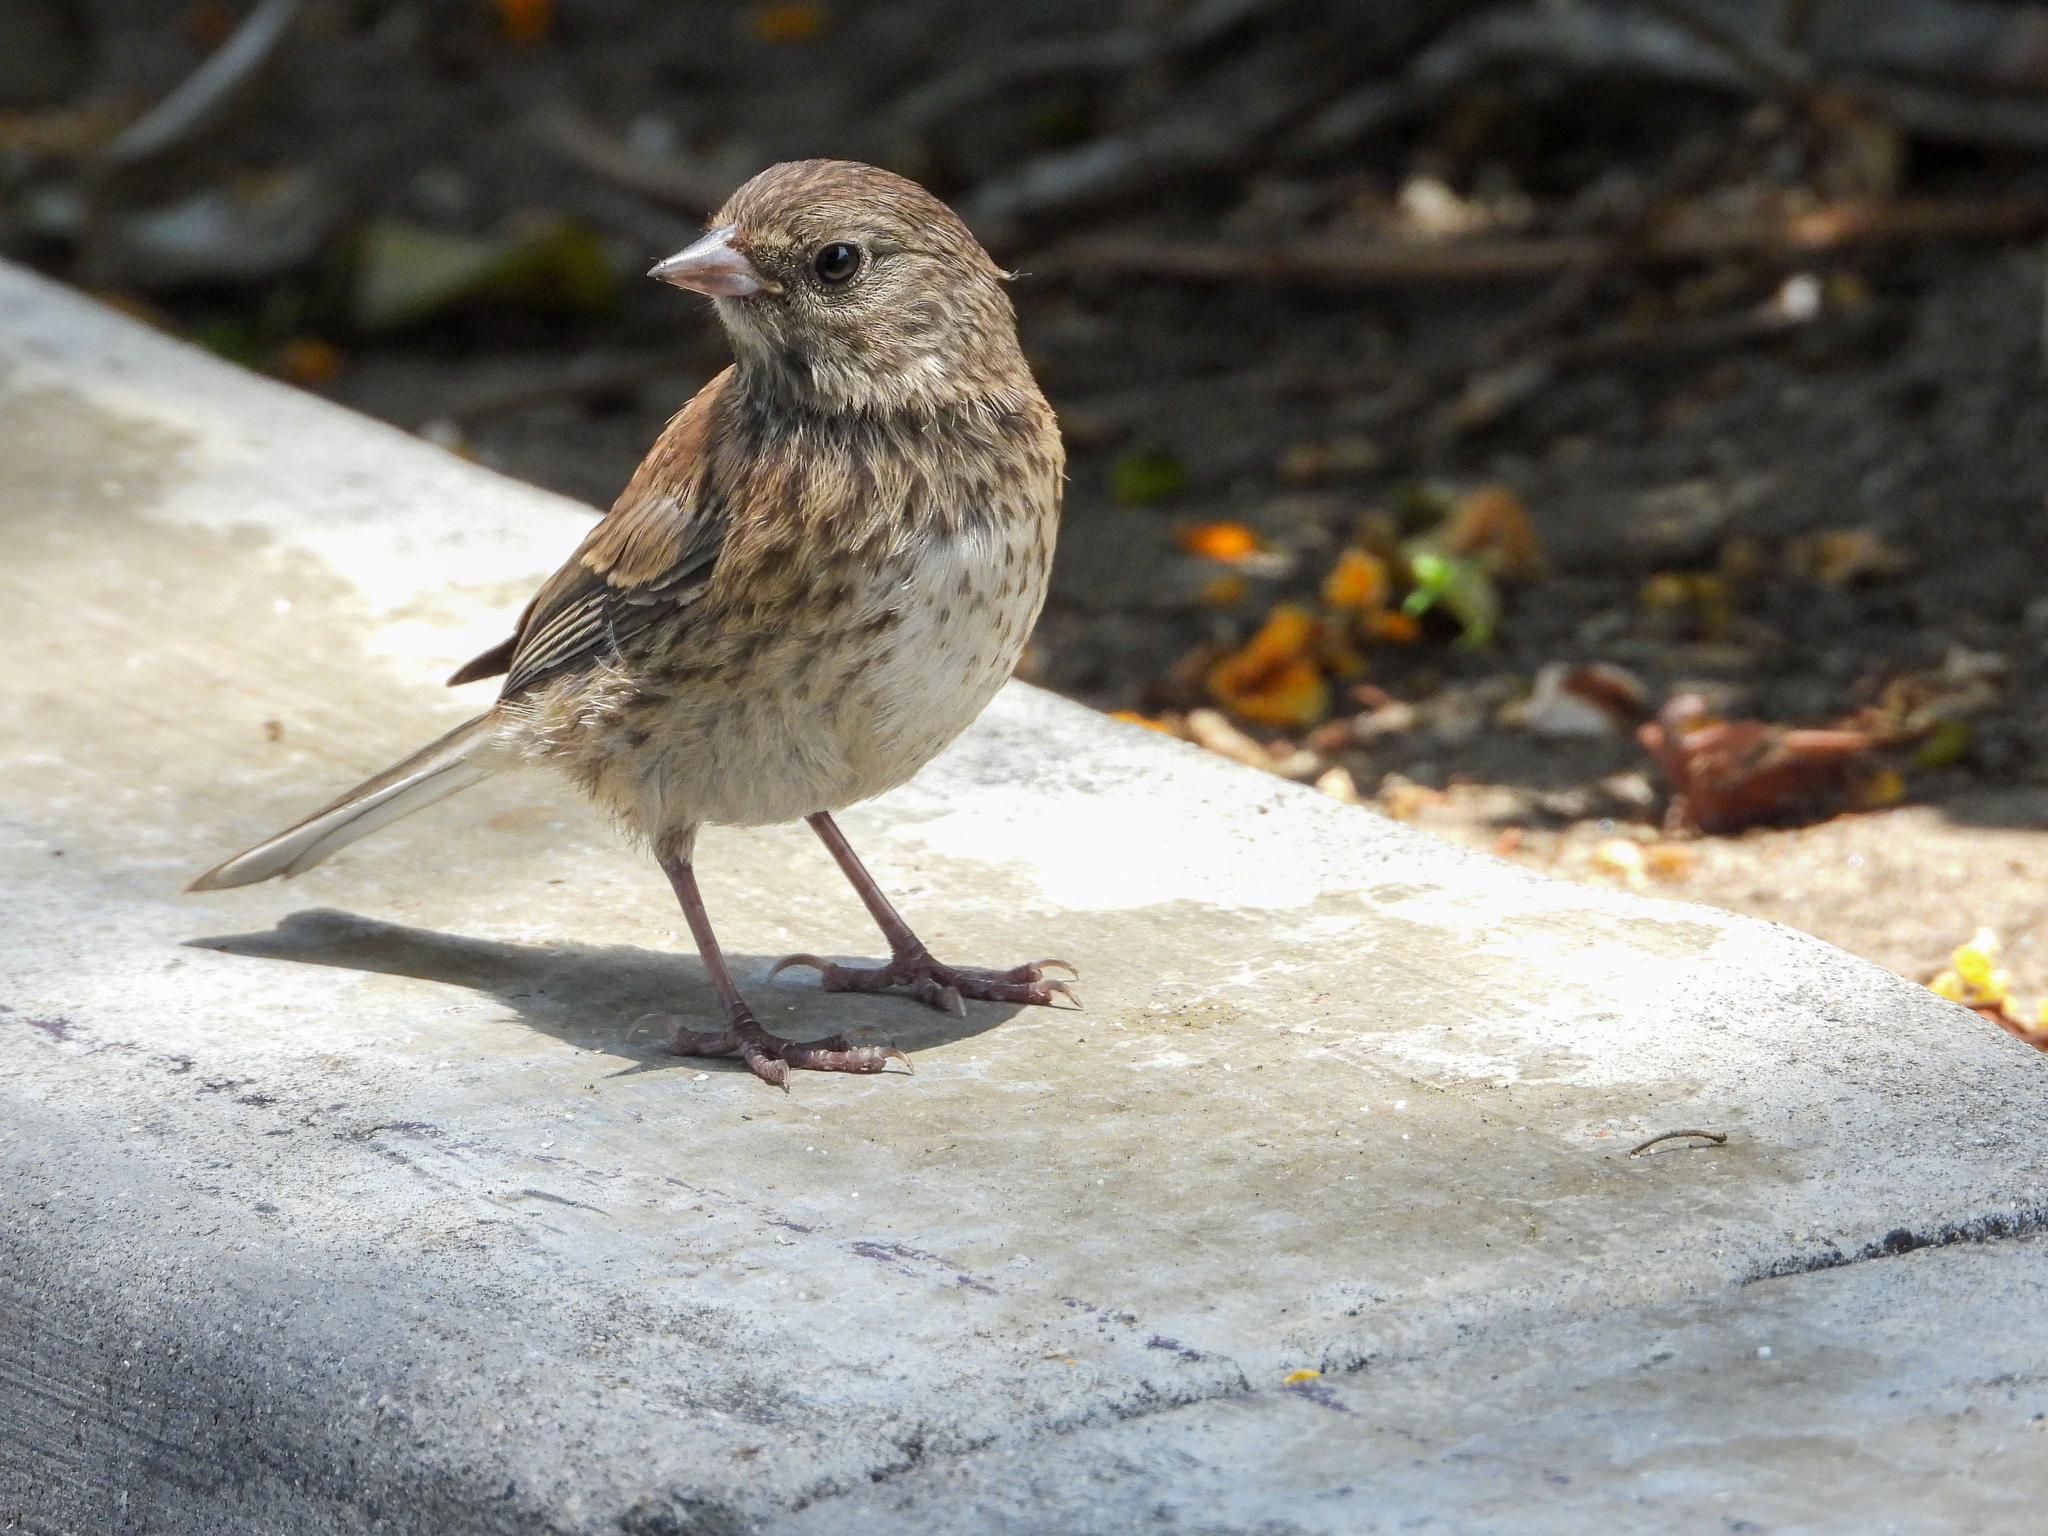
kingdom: Animalia
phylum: Chordata
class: Aves
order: Passeriformes
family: Passerellidae
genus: Junco
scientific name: Junco hyemalis
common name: Dark-eyed junco
